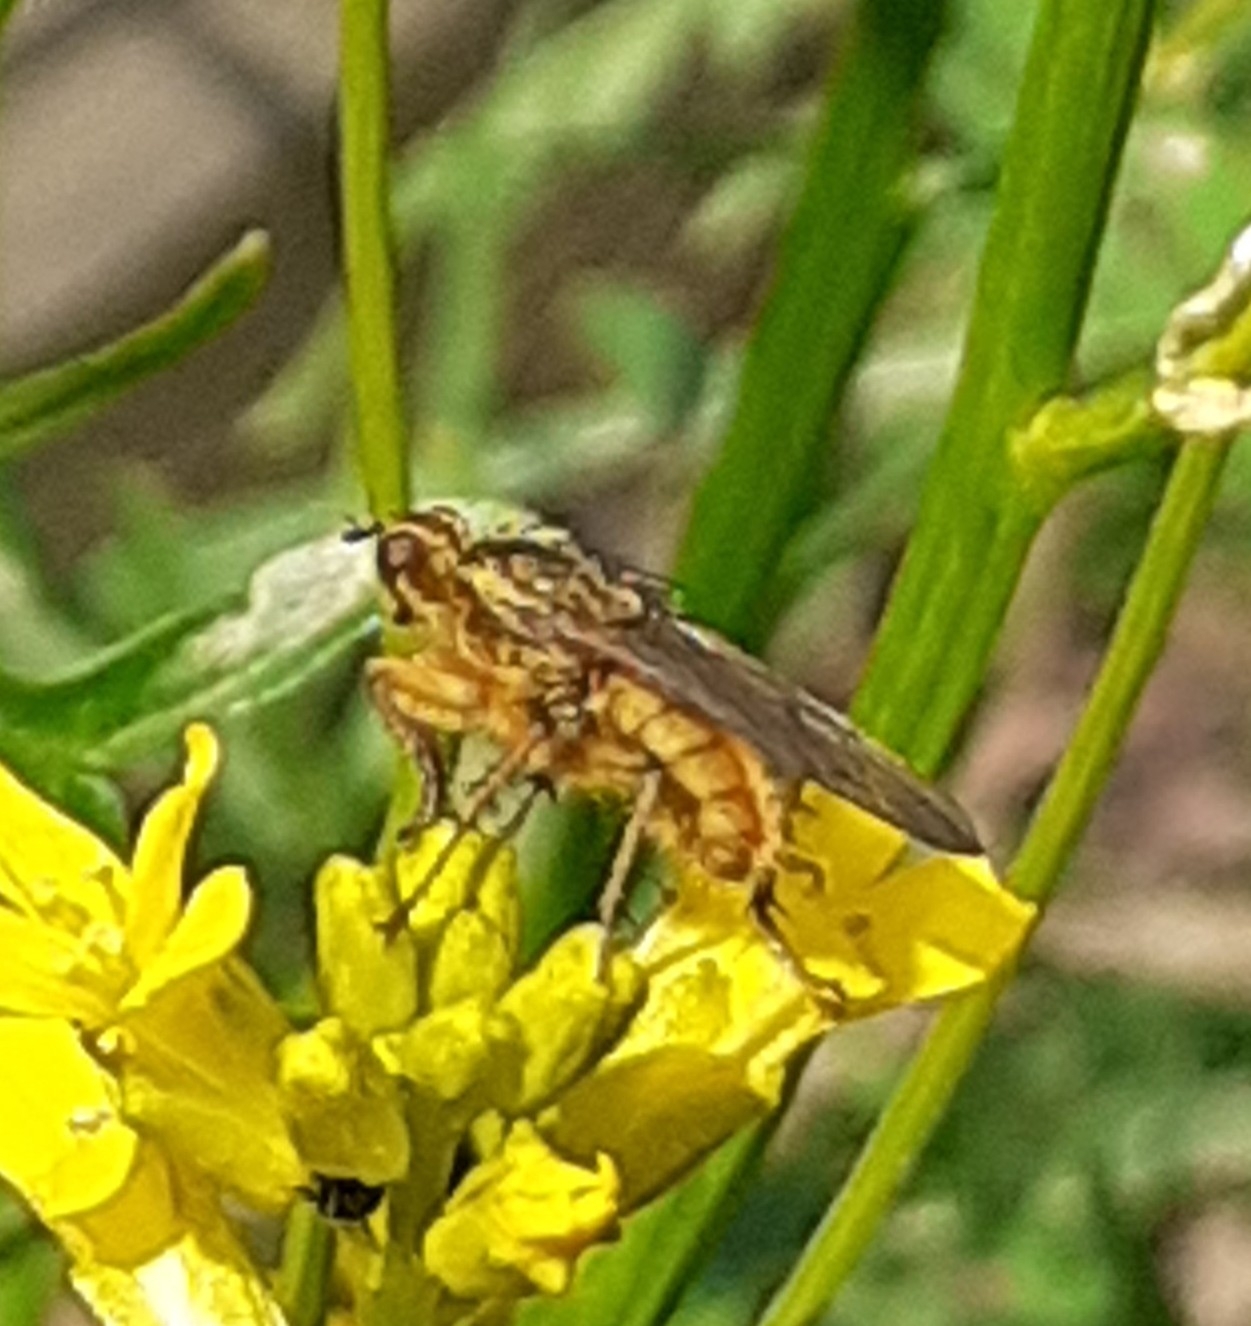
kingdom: Animalia
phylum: Arthropoda
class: Insecta
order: Diptera
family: Scathophagidae
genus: Scathophaga
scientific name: Scathophaga stercoraria
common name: Yellow dung fly
